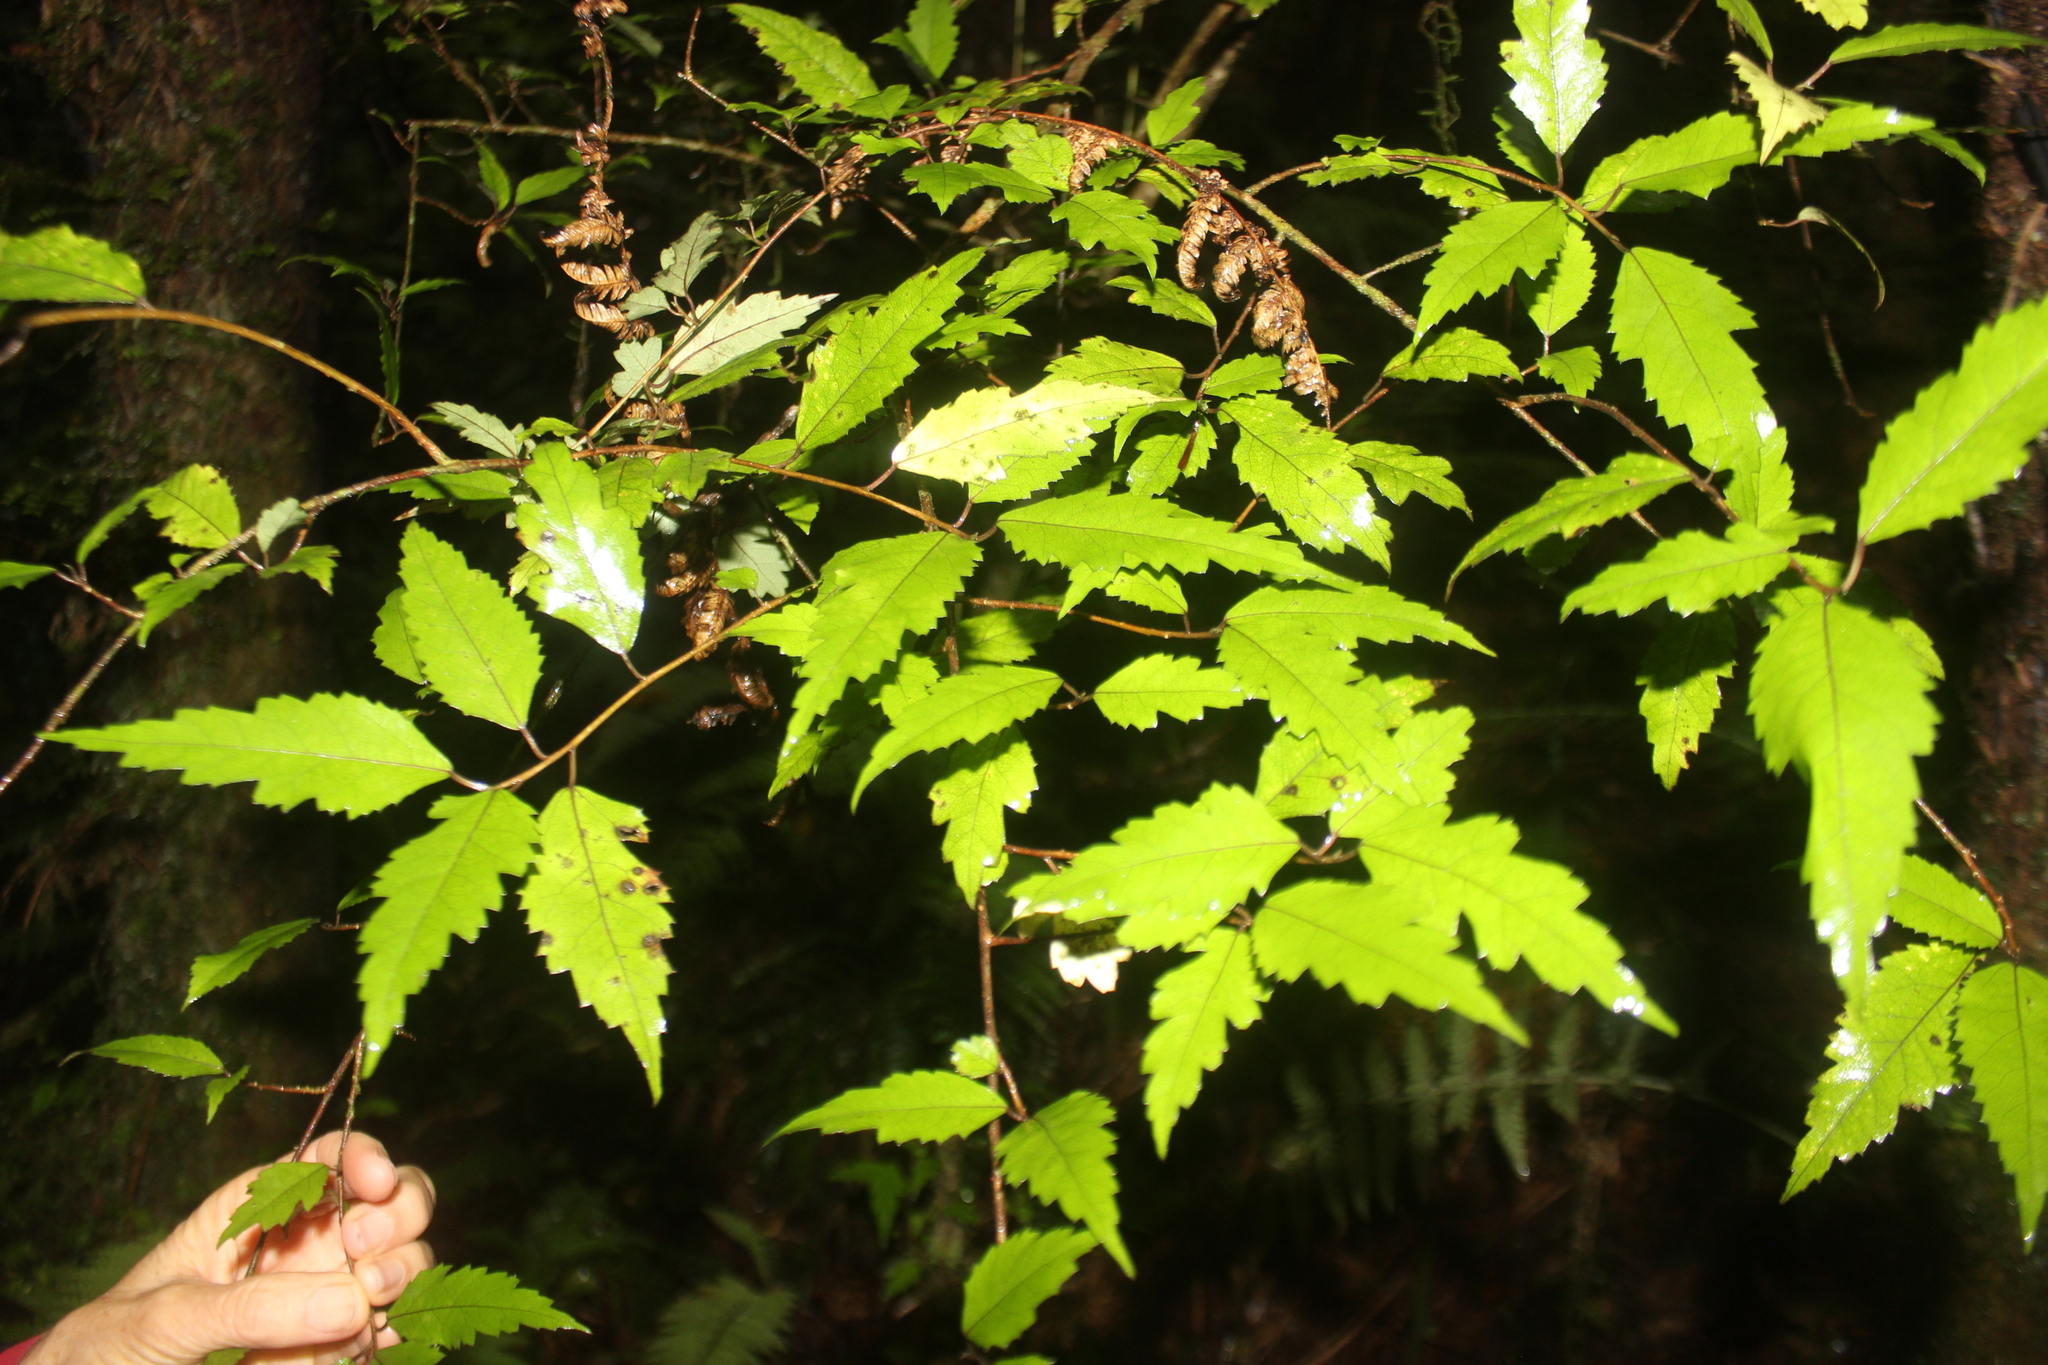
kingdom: Plantae
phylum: Tracheophyta
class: Magnoliopsida
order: Malvales
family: Malvaceae
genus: Hoheria
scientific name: Hoheria sexstylosa
